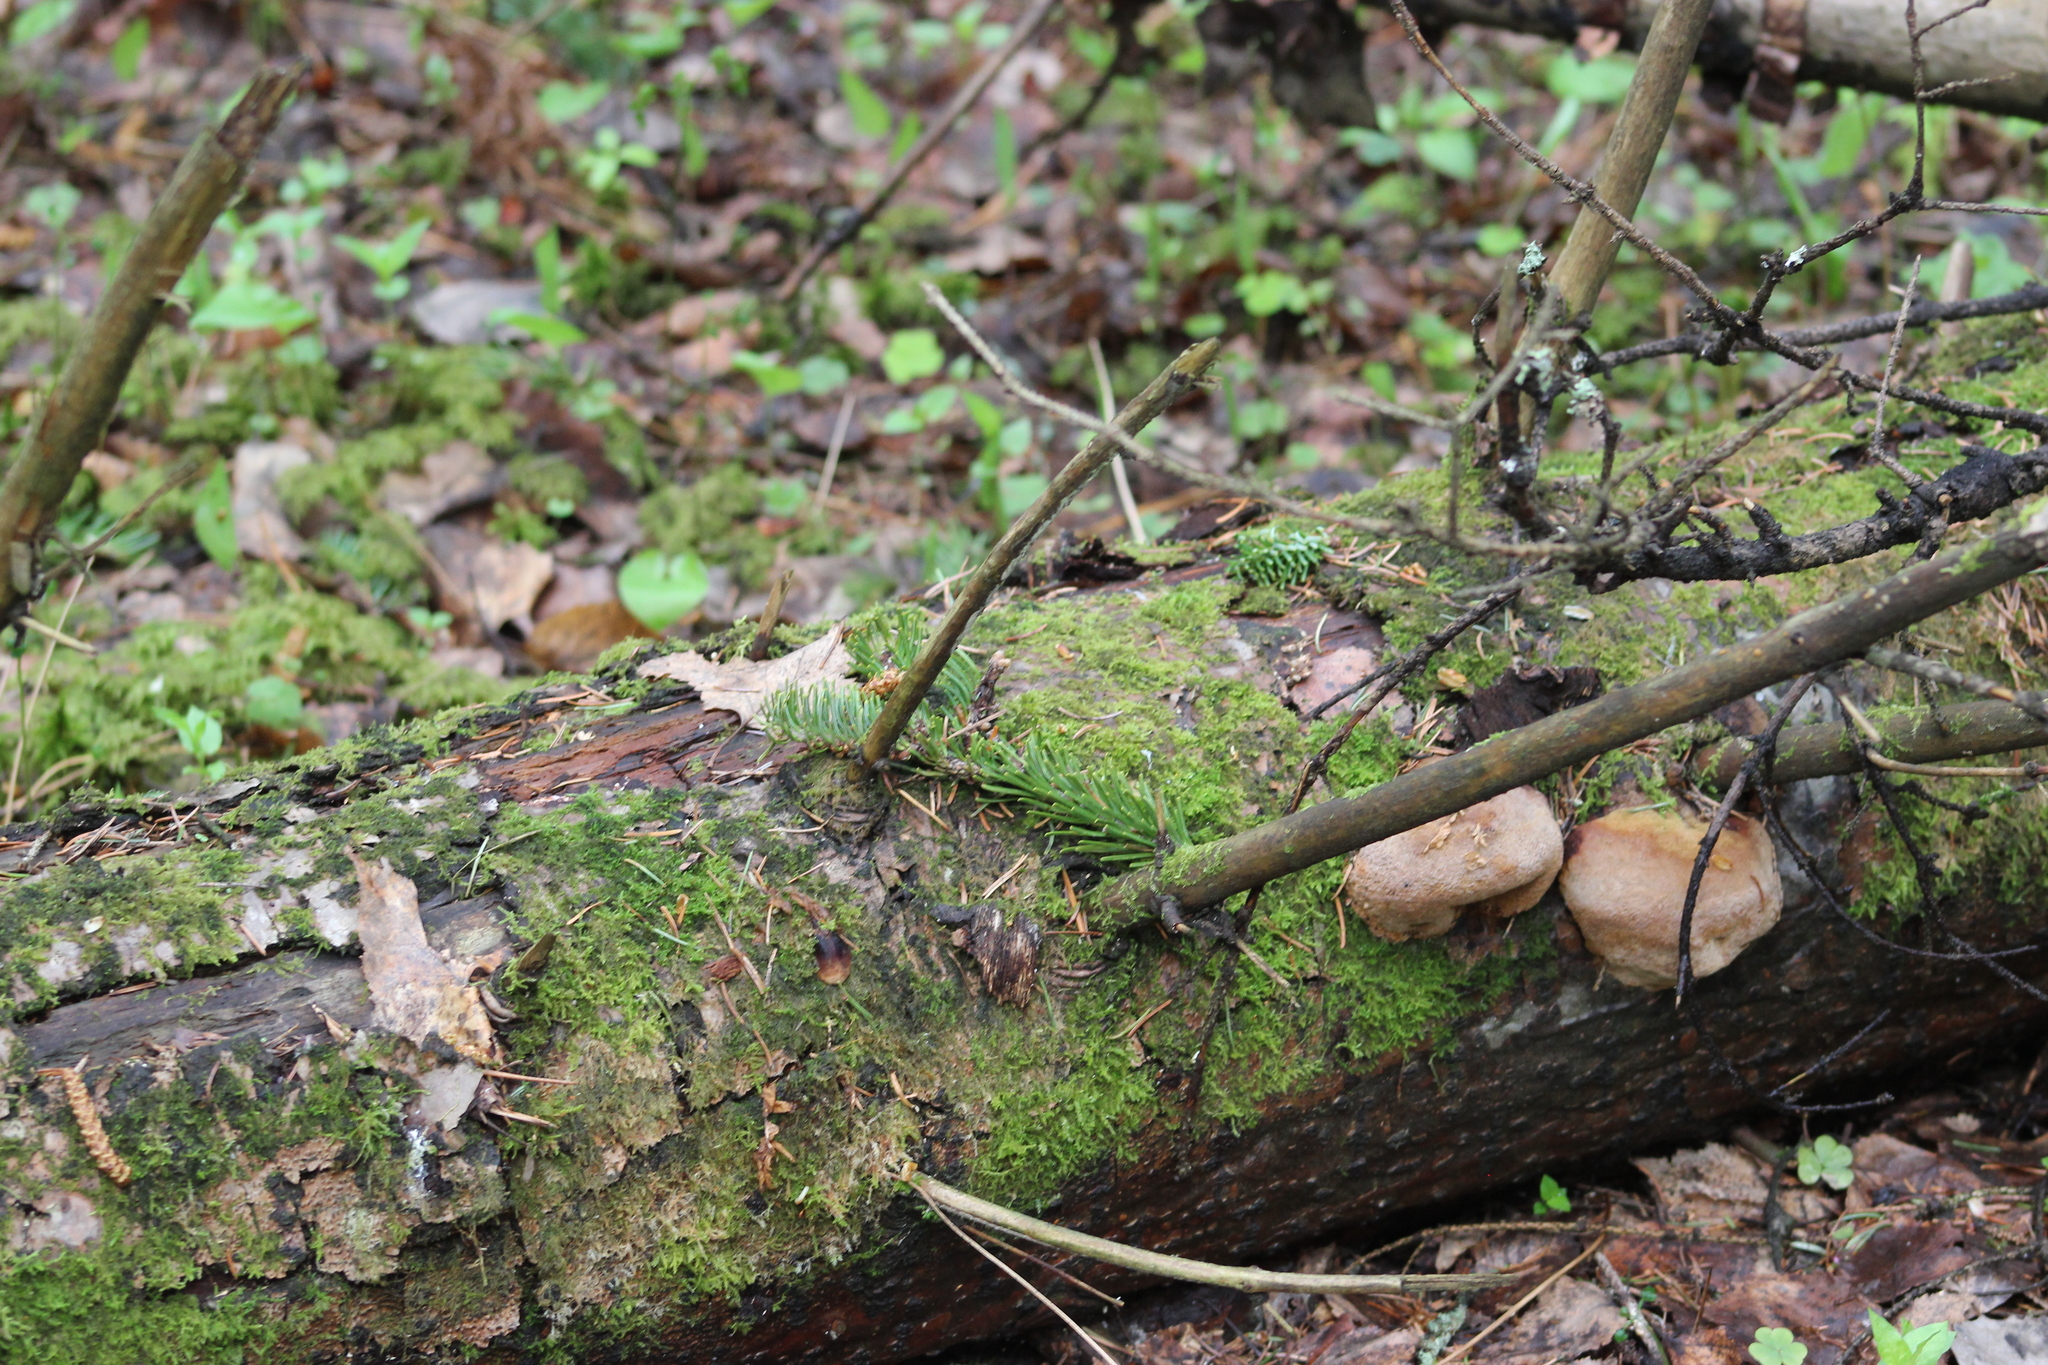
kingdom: Fungi
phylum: Basidiomycota
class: Agaricomycetes
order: Hymenochaetales
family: Hymenochaetaceae
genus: Phellinus
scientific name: Phellinus hartigii
